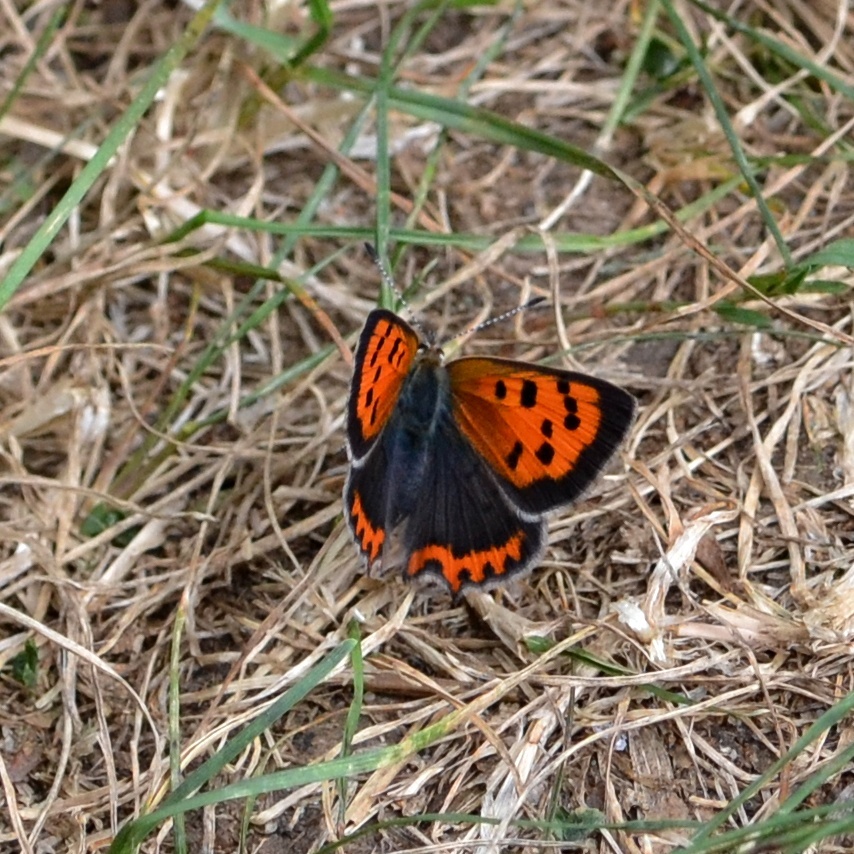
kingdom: Animalia
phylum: Arthropoda
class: Insecta
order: Lepidoptera
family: Lycaenidae
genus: Lycaena
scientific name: Lycaena phlaeas
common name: Small copper
